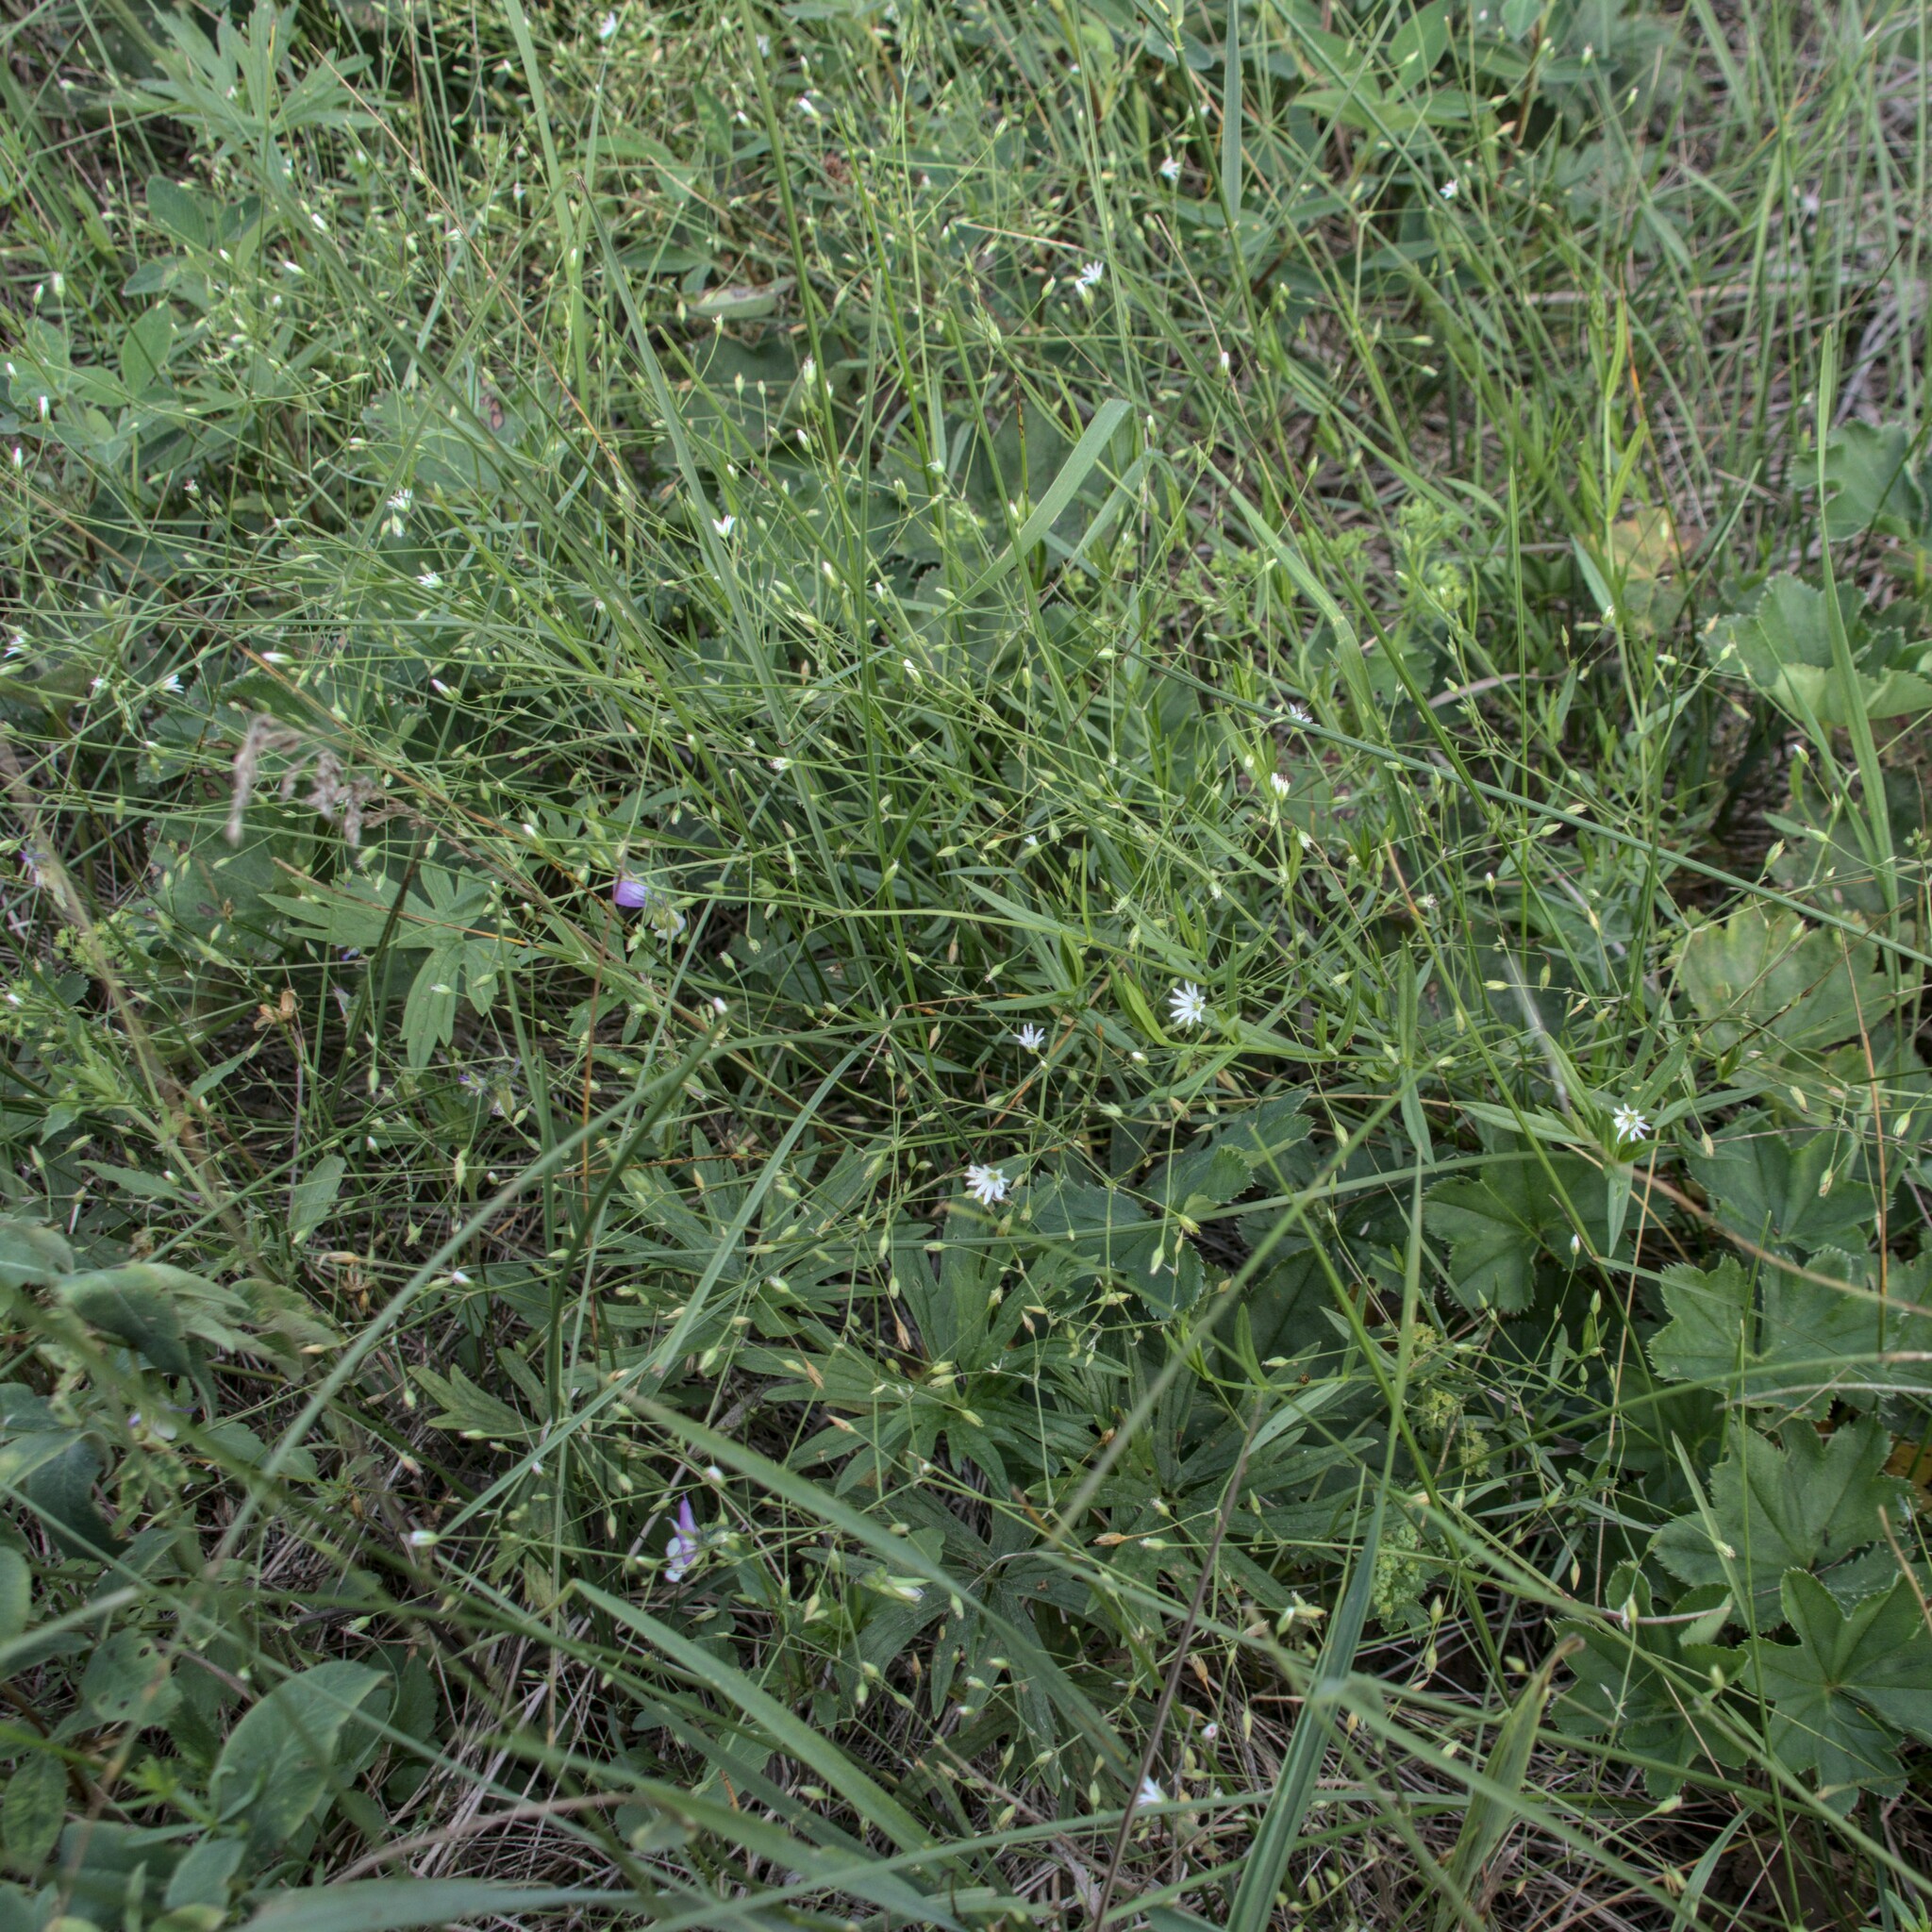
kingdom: Plantae
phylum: Tracheophyta
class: Magnoliopsida
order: Caryophyllales
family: Caryophyllaceae
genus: Stellaria
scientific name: Stellaria graminea
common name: Grass-like starwort
